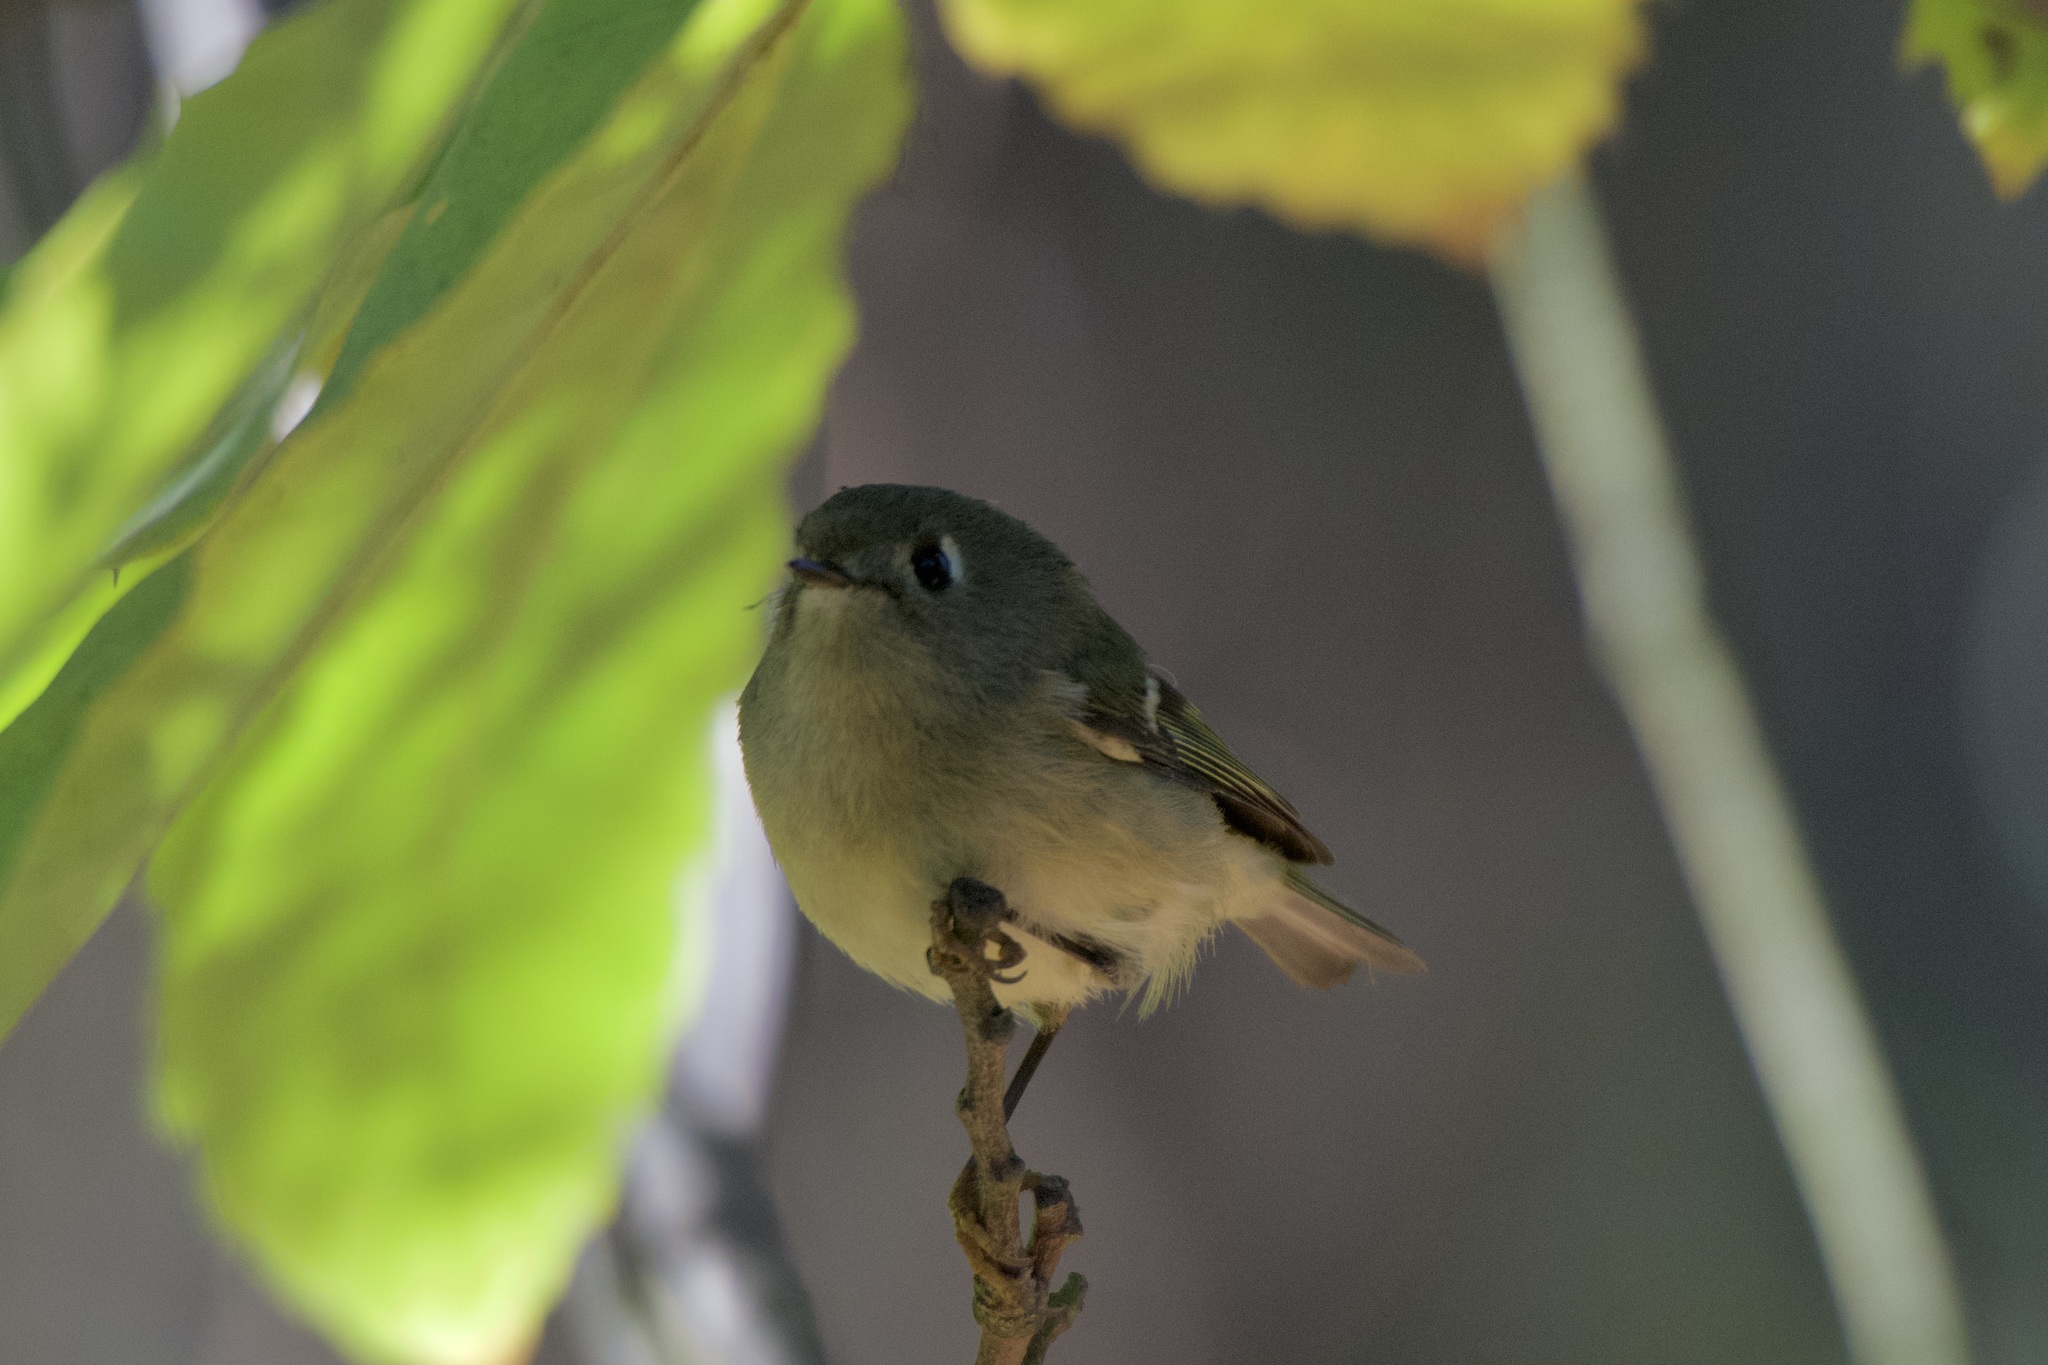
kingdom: Animalia
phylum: Chordata
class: Aves
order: Passeriformes
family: Regulidae
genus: Regulus
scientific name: Regulus calendula
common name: Ruby-crowned kinglet
